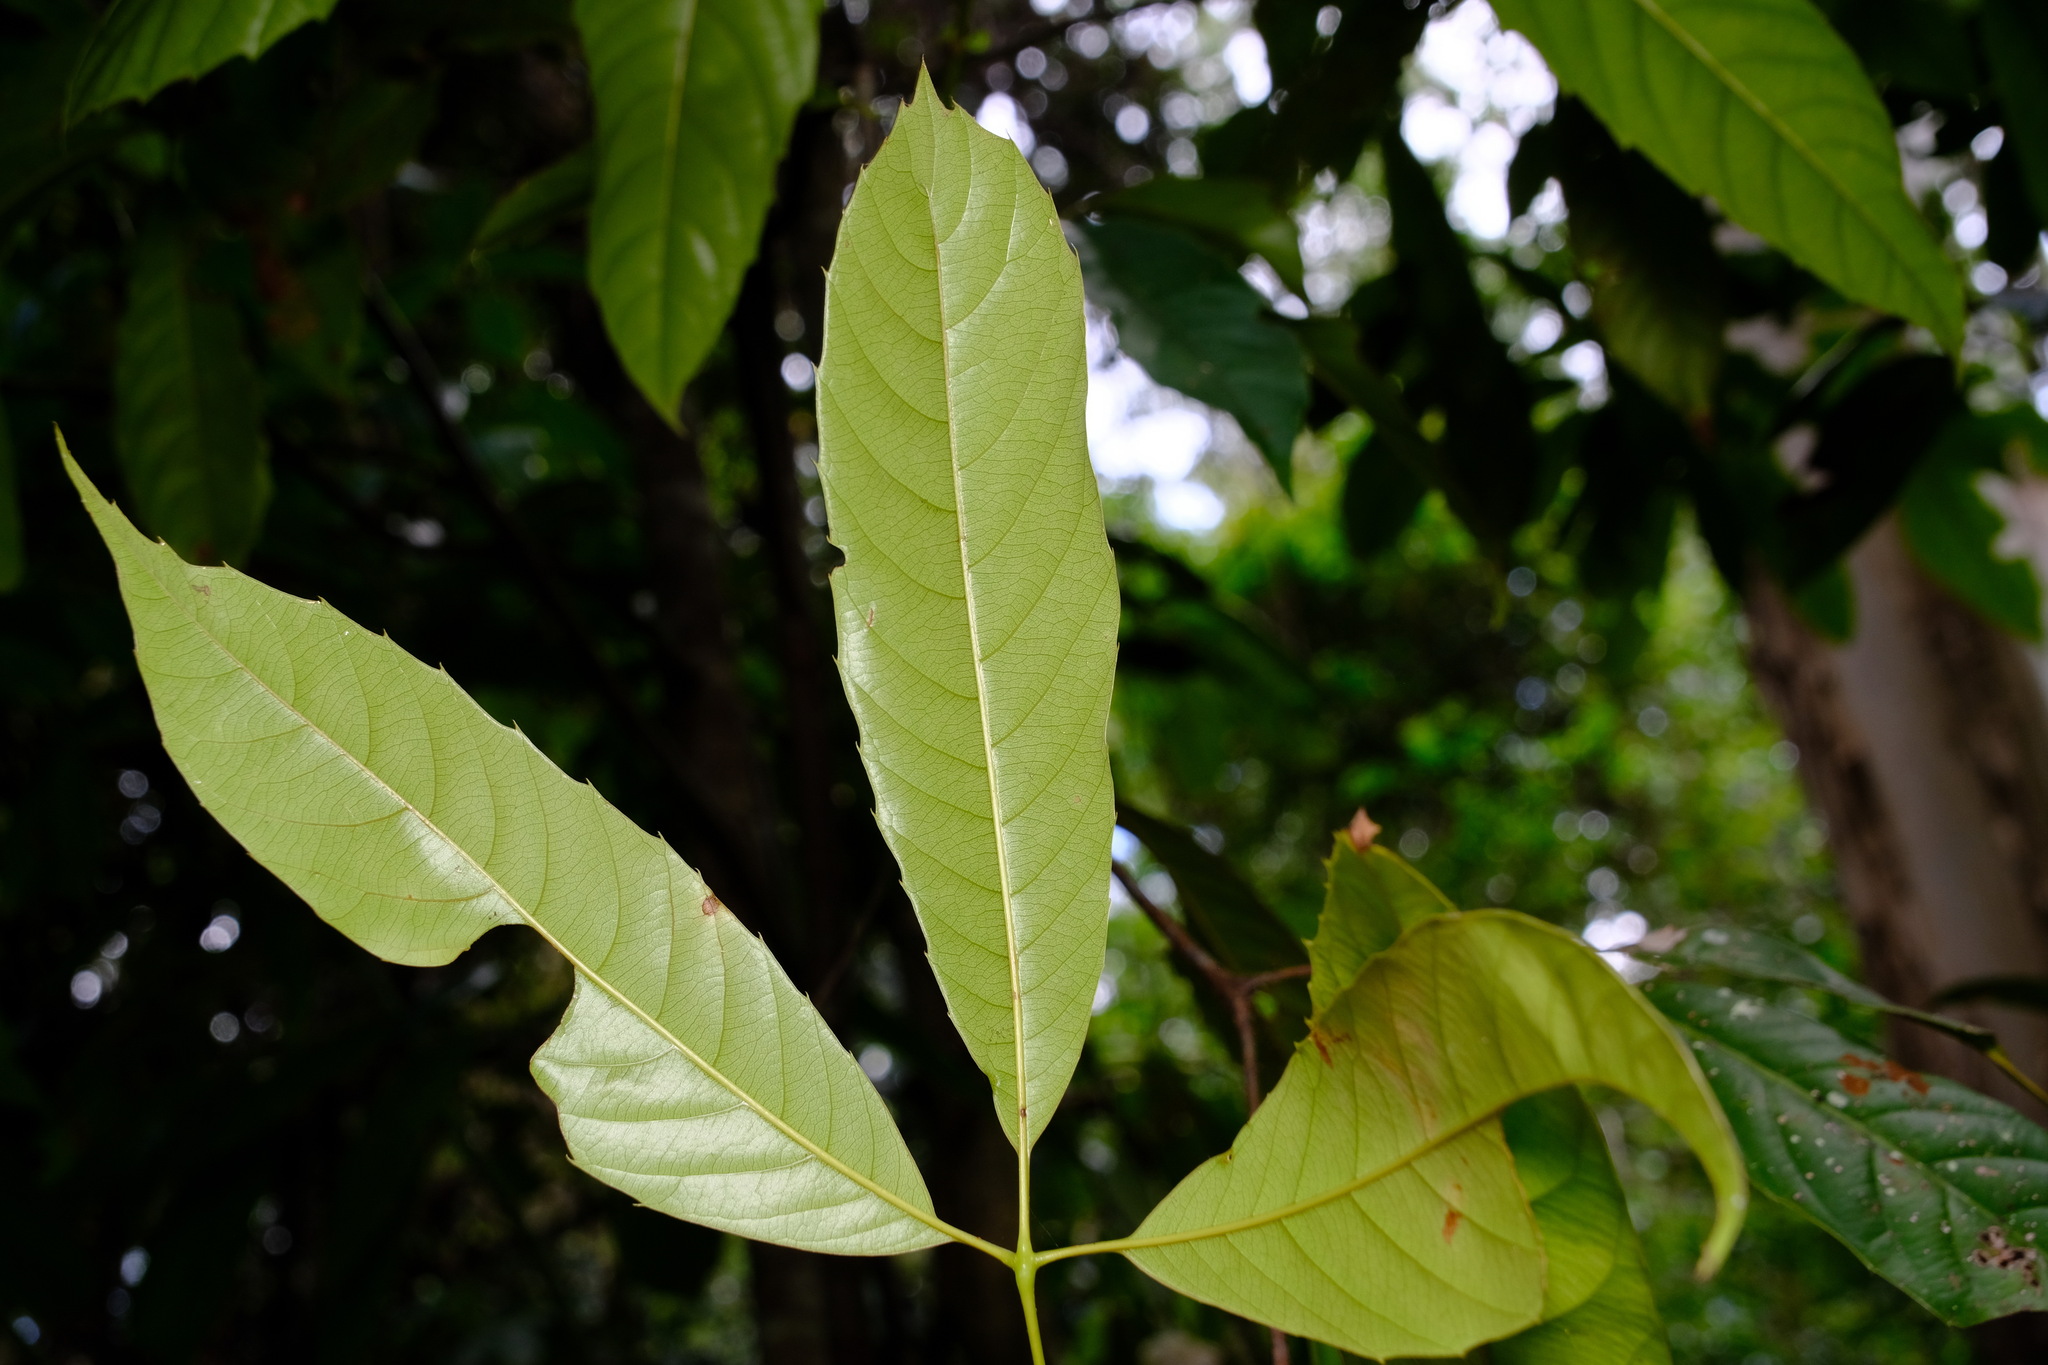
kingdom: Plantae
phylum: Tracheophyta
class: Magnoliopsida
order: Oxalidales
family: Cunoniaceae
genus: Karrabina
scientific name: Karrabina benthamiana
